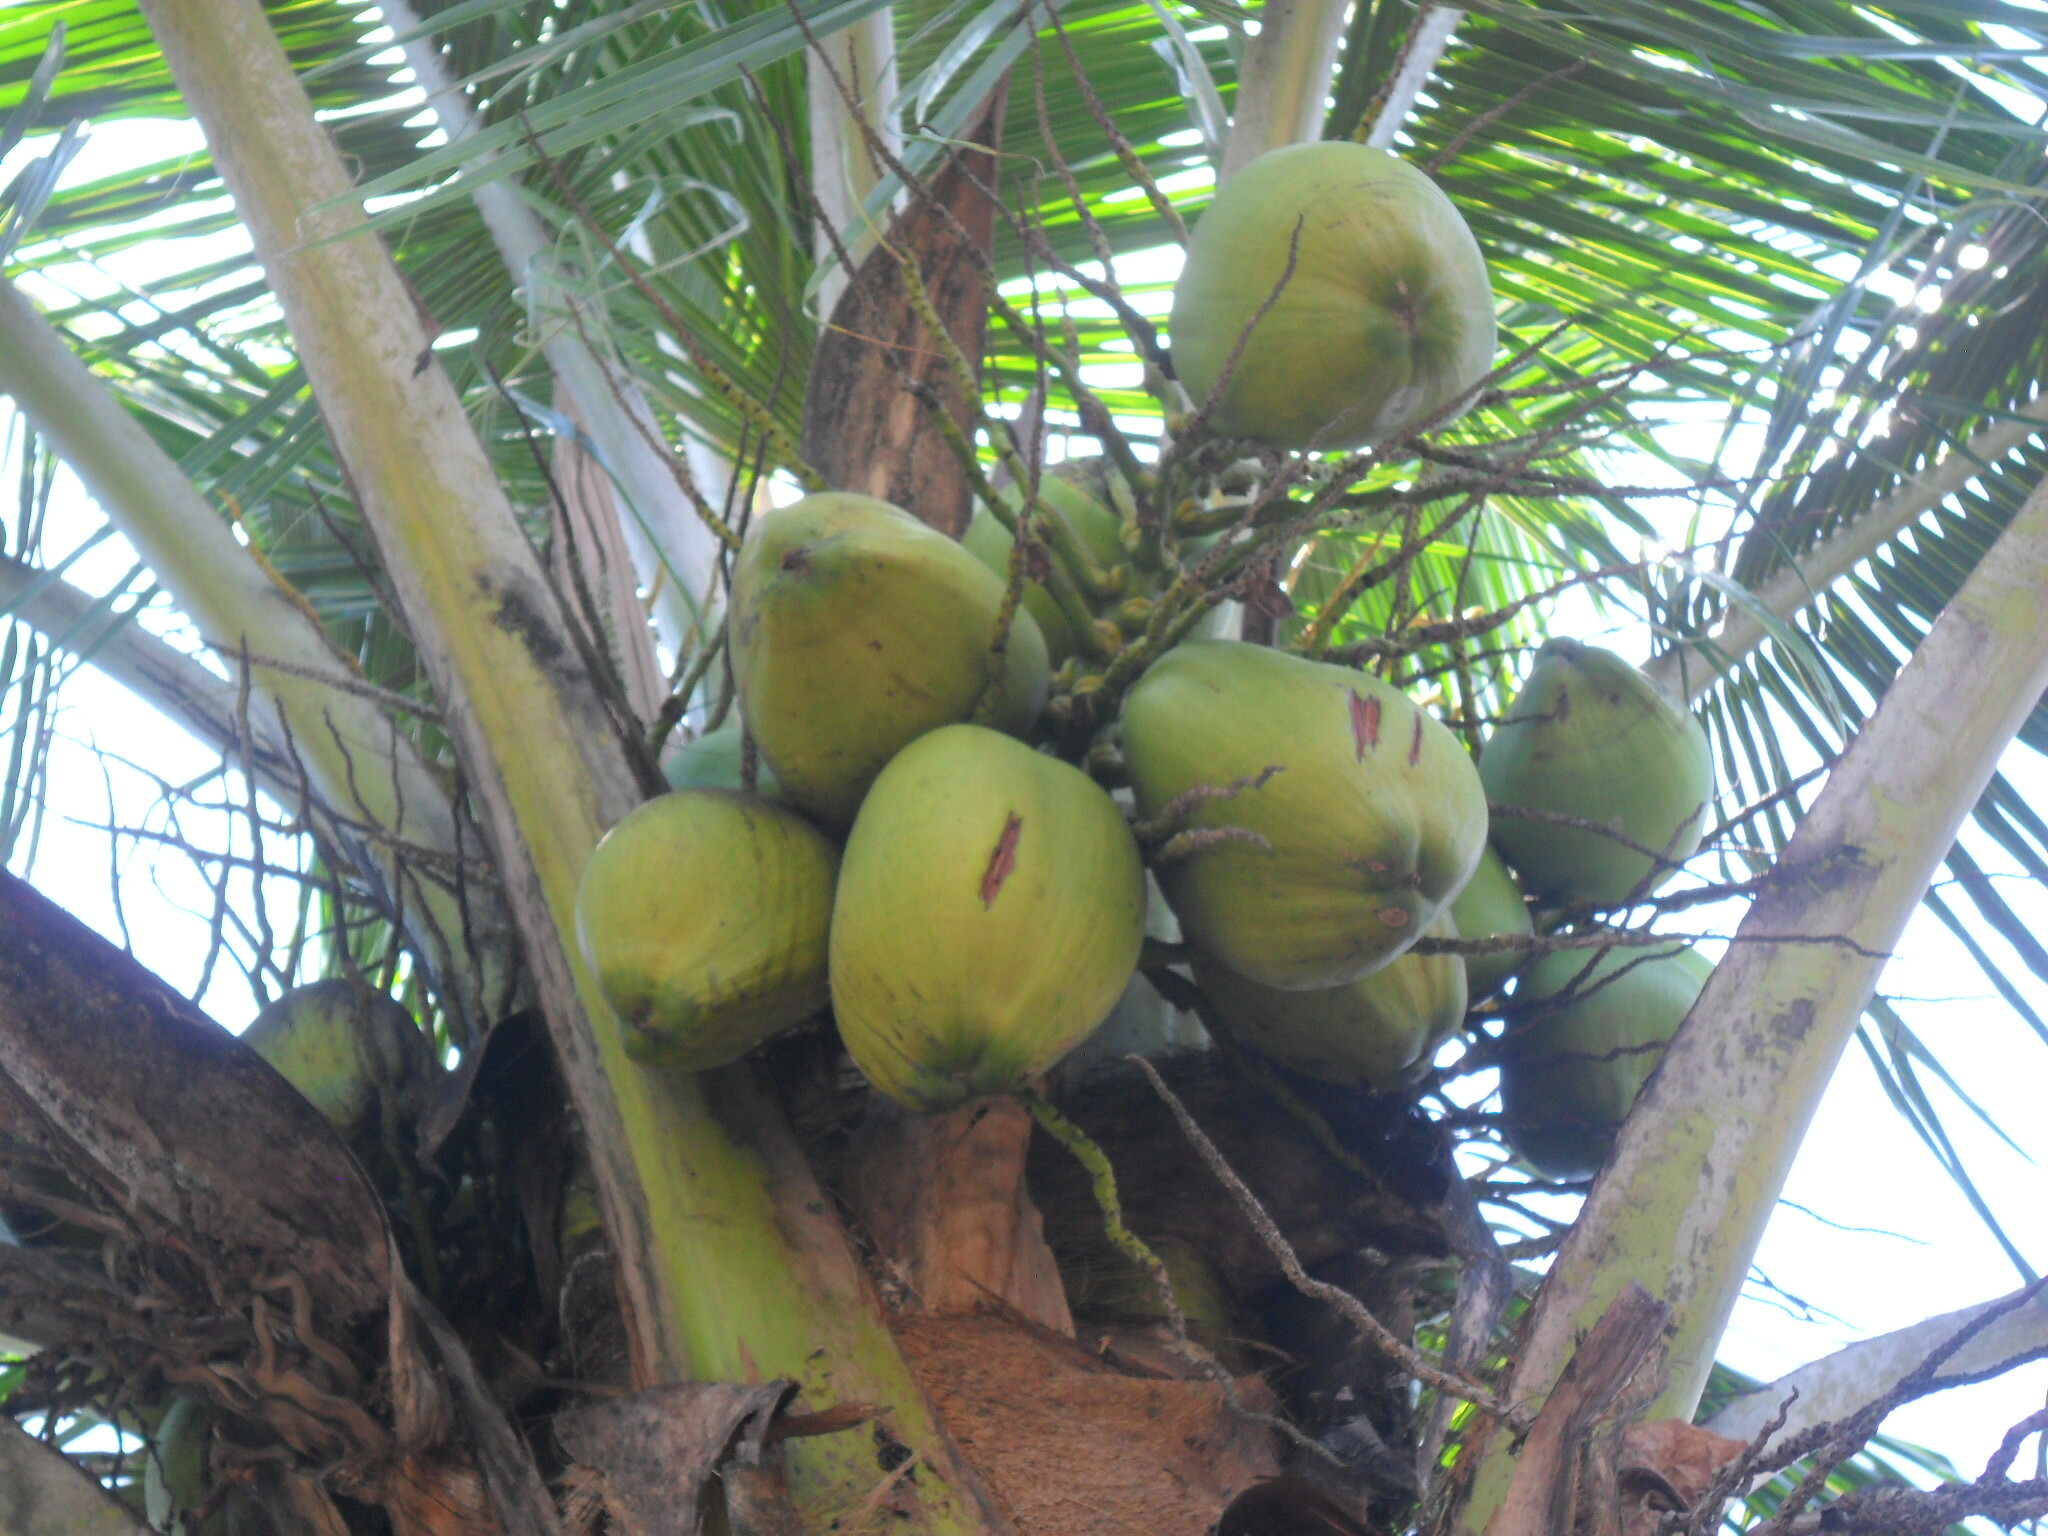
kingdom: Plantae
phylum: Tracheophyta
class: Liliopsida
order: Arecales
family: Arecaceae
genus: Cocos
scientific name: Cocos nucifera
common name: Coconut palm
